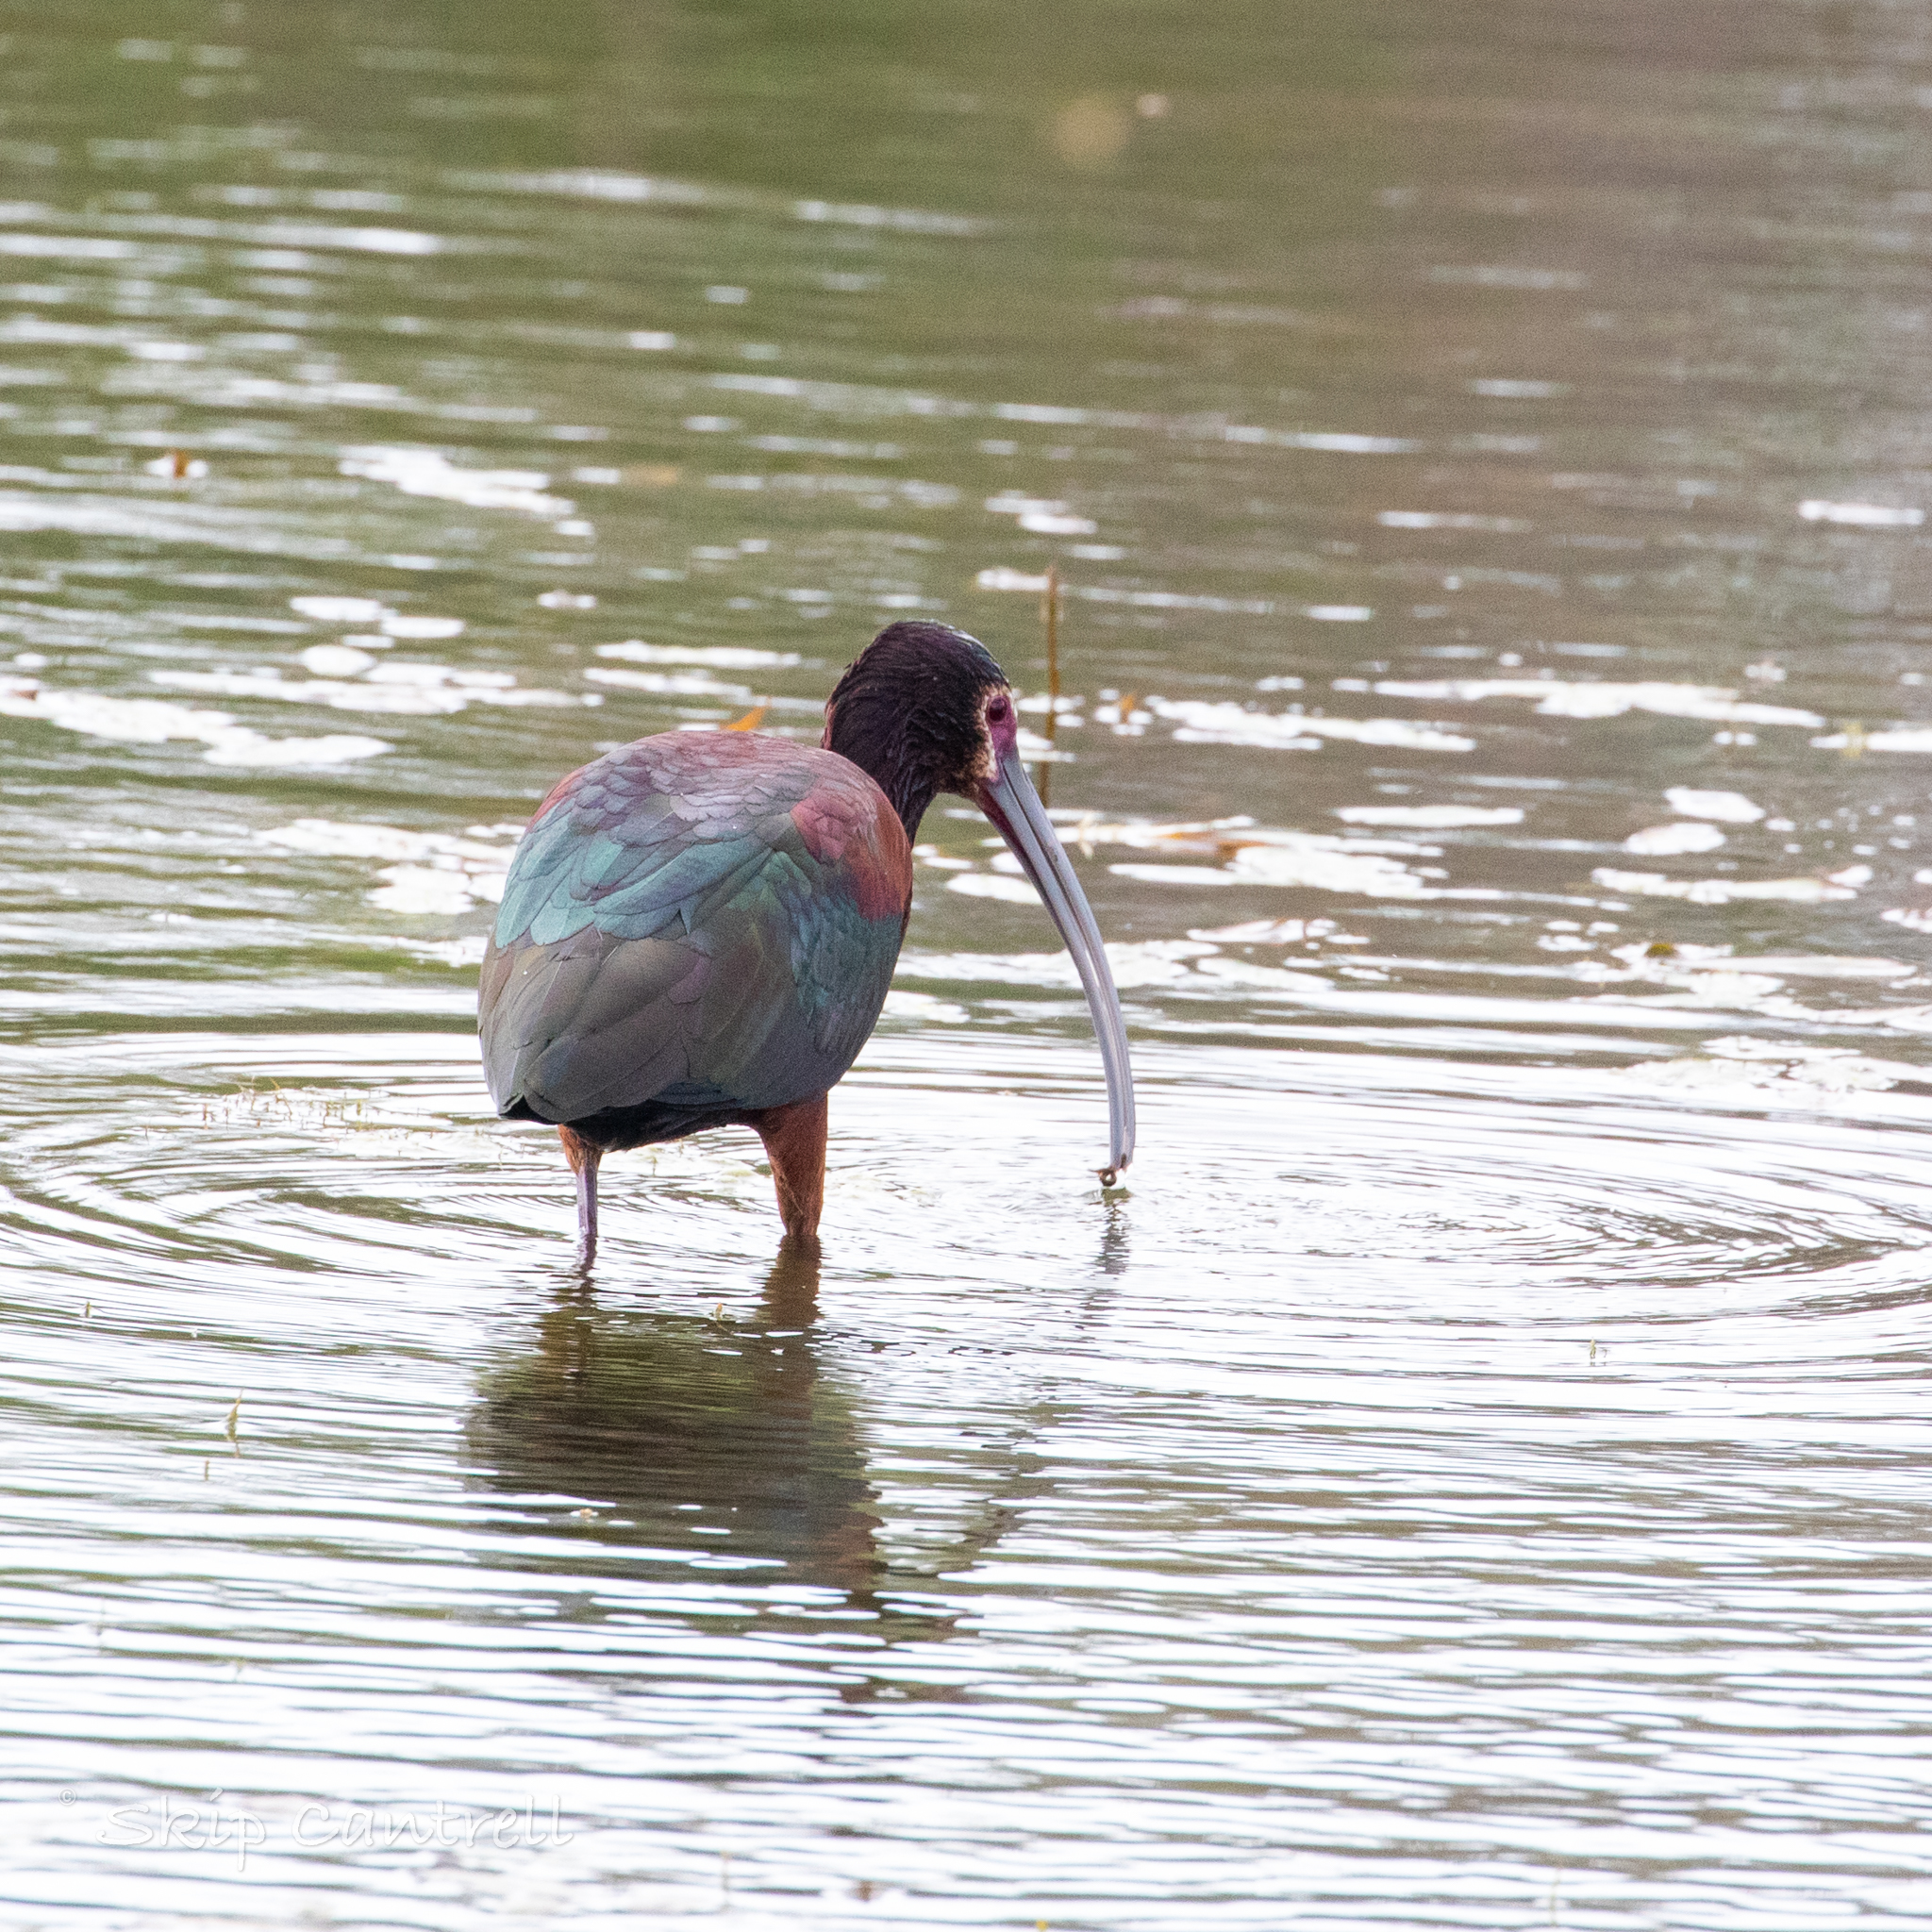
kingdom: Animalia
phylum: Chordata
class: Aves
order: Pelecaniformes
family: Threskiornithidae
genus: Plegadis
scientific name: Plegadis chihi
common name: White-faced ibis
